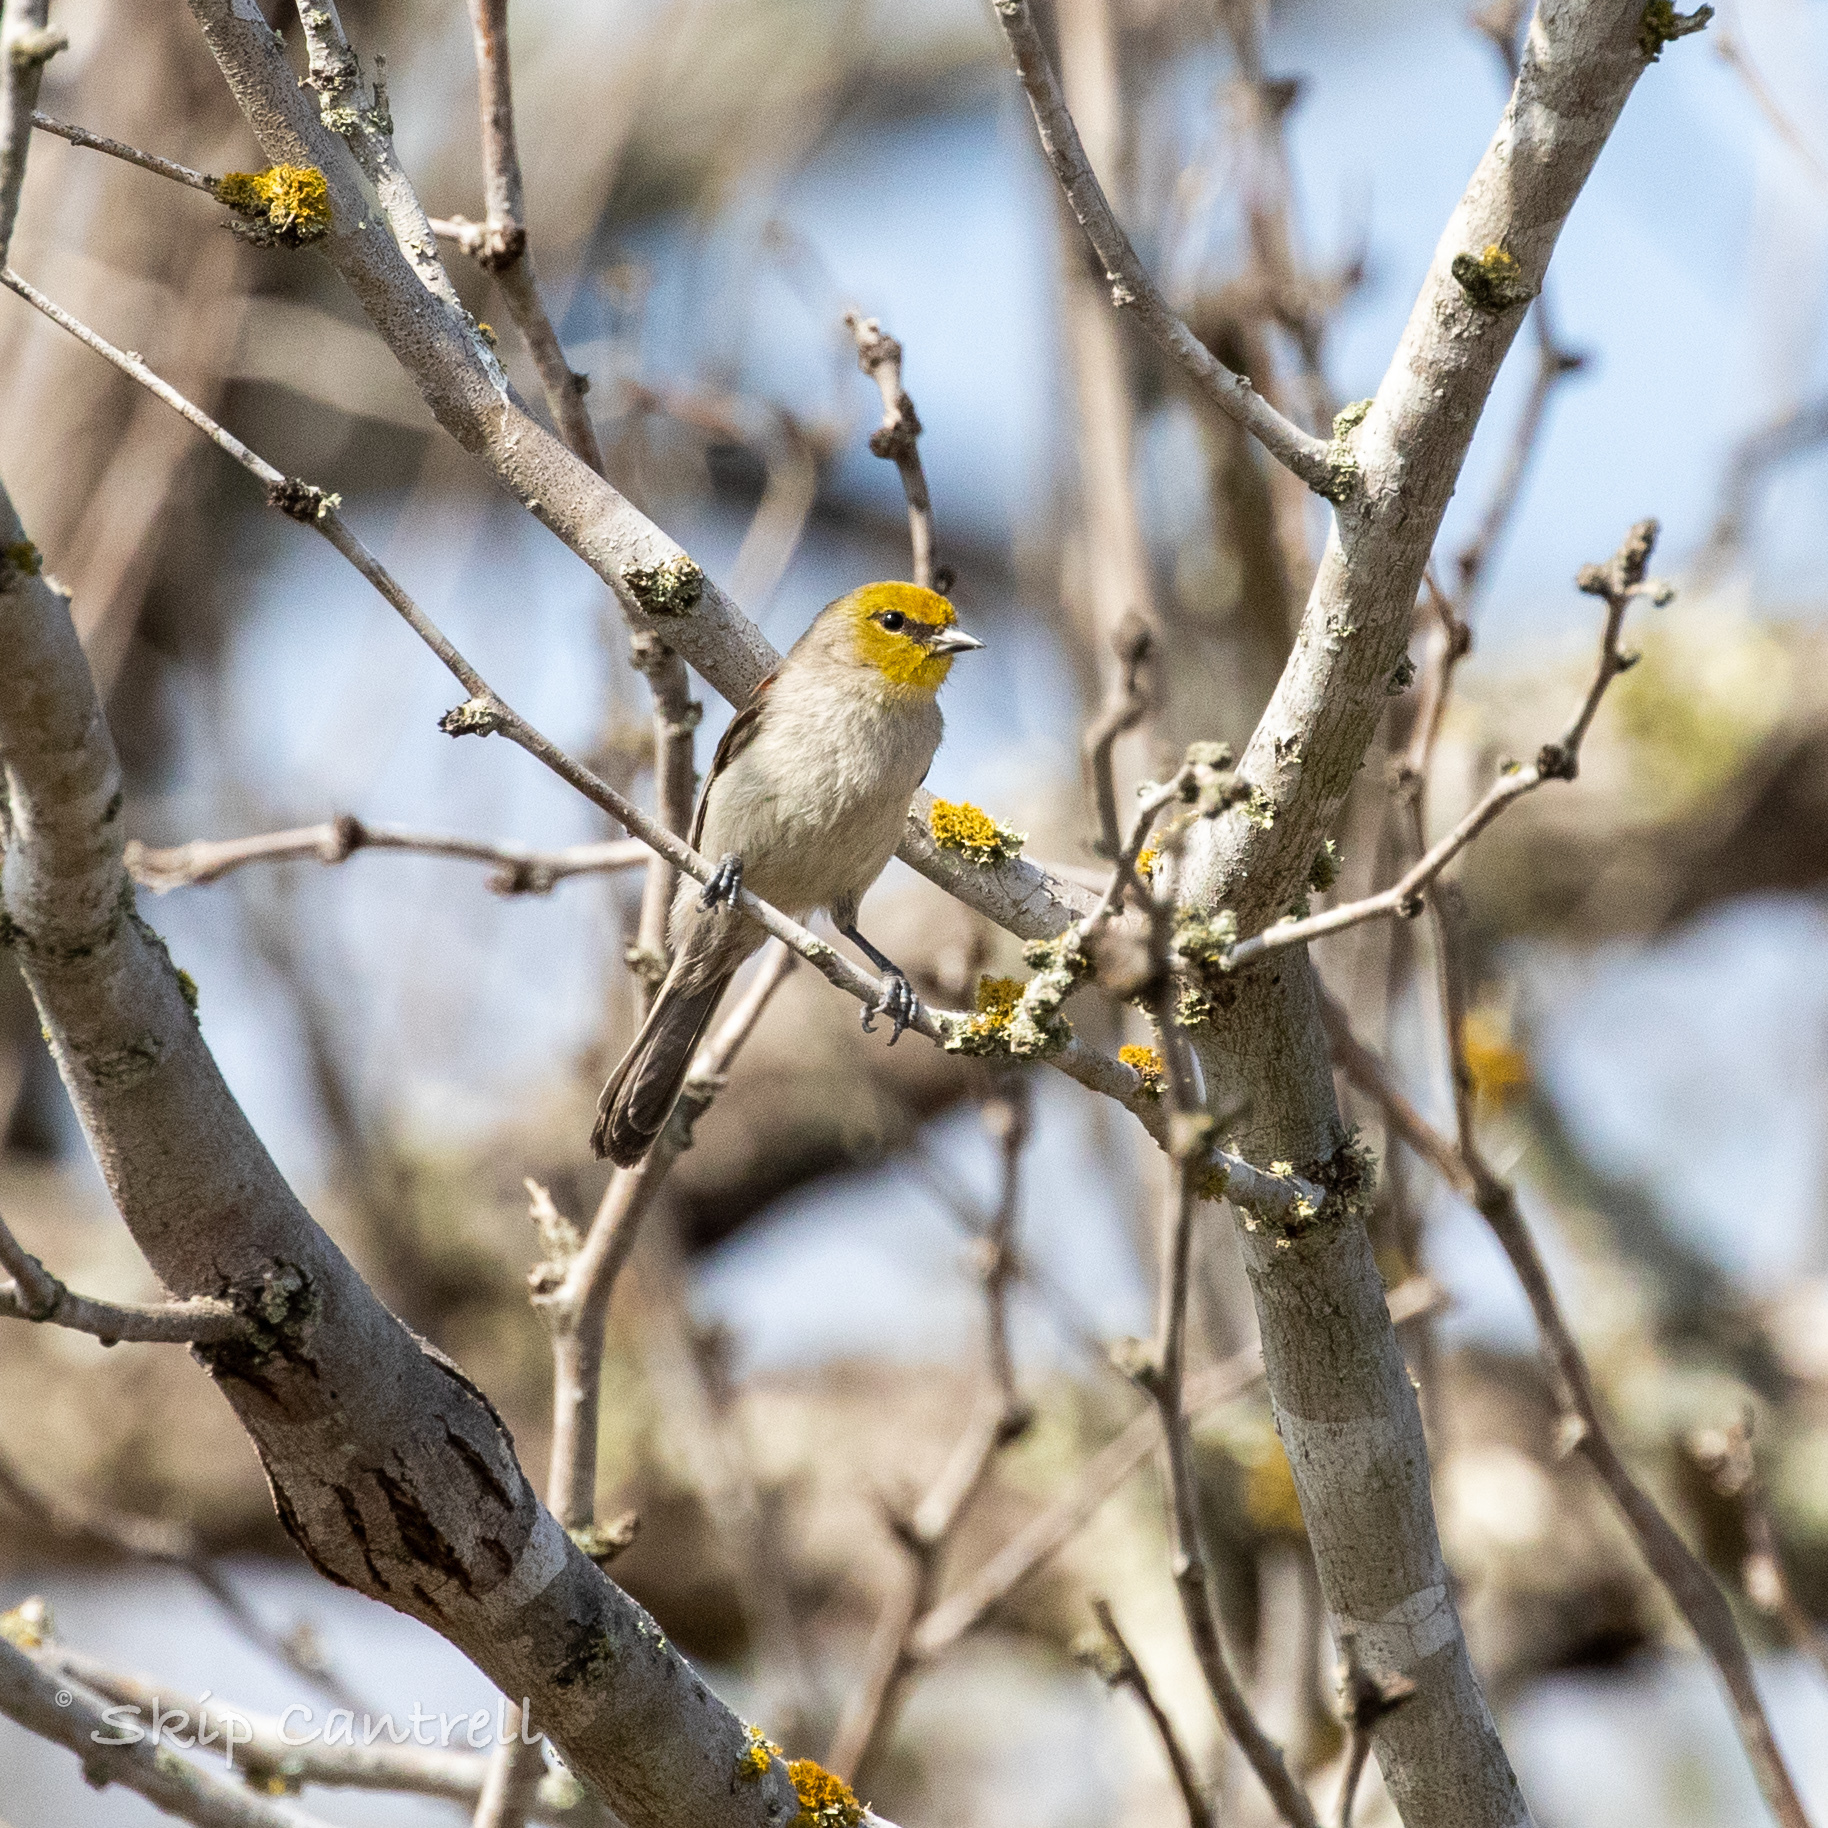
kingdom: Animalia
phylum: Chordata
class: Aves
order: Passeriformes
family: Remizidae
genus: Auriparus
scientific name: Auriparus flaviceps
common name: Verdin
